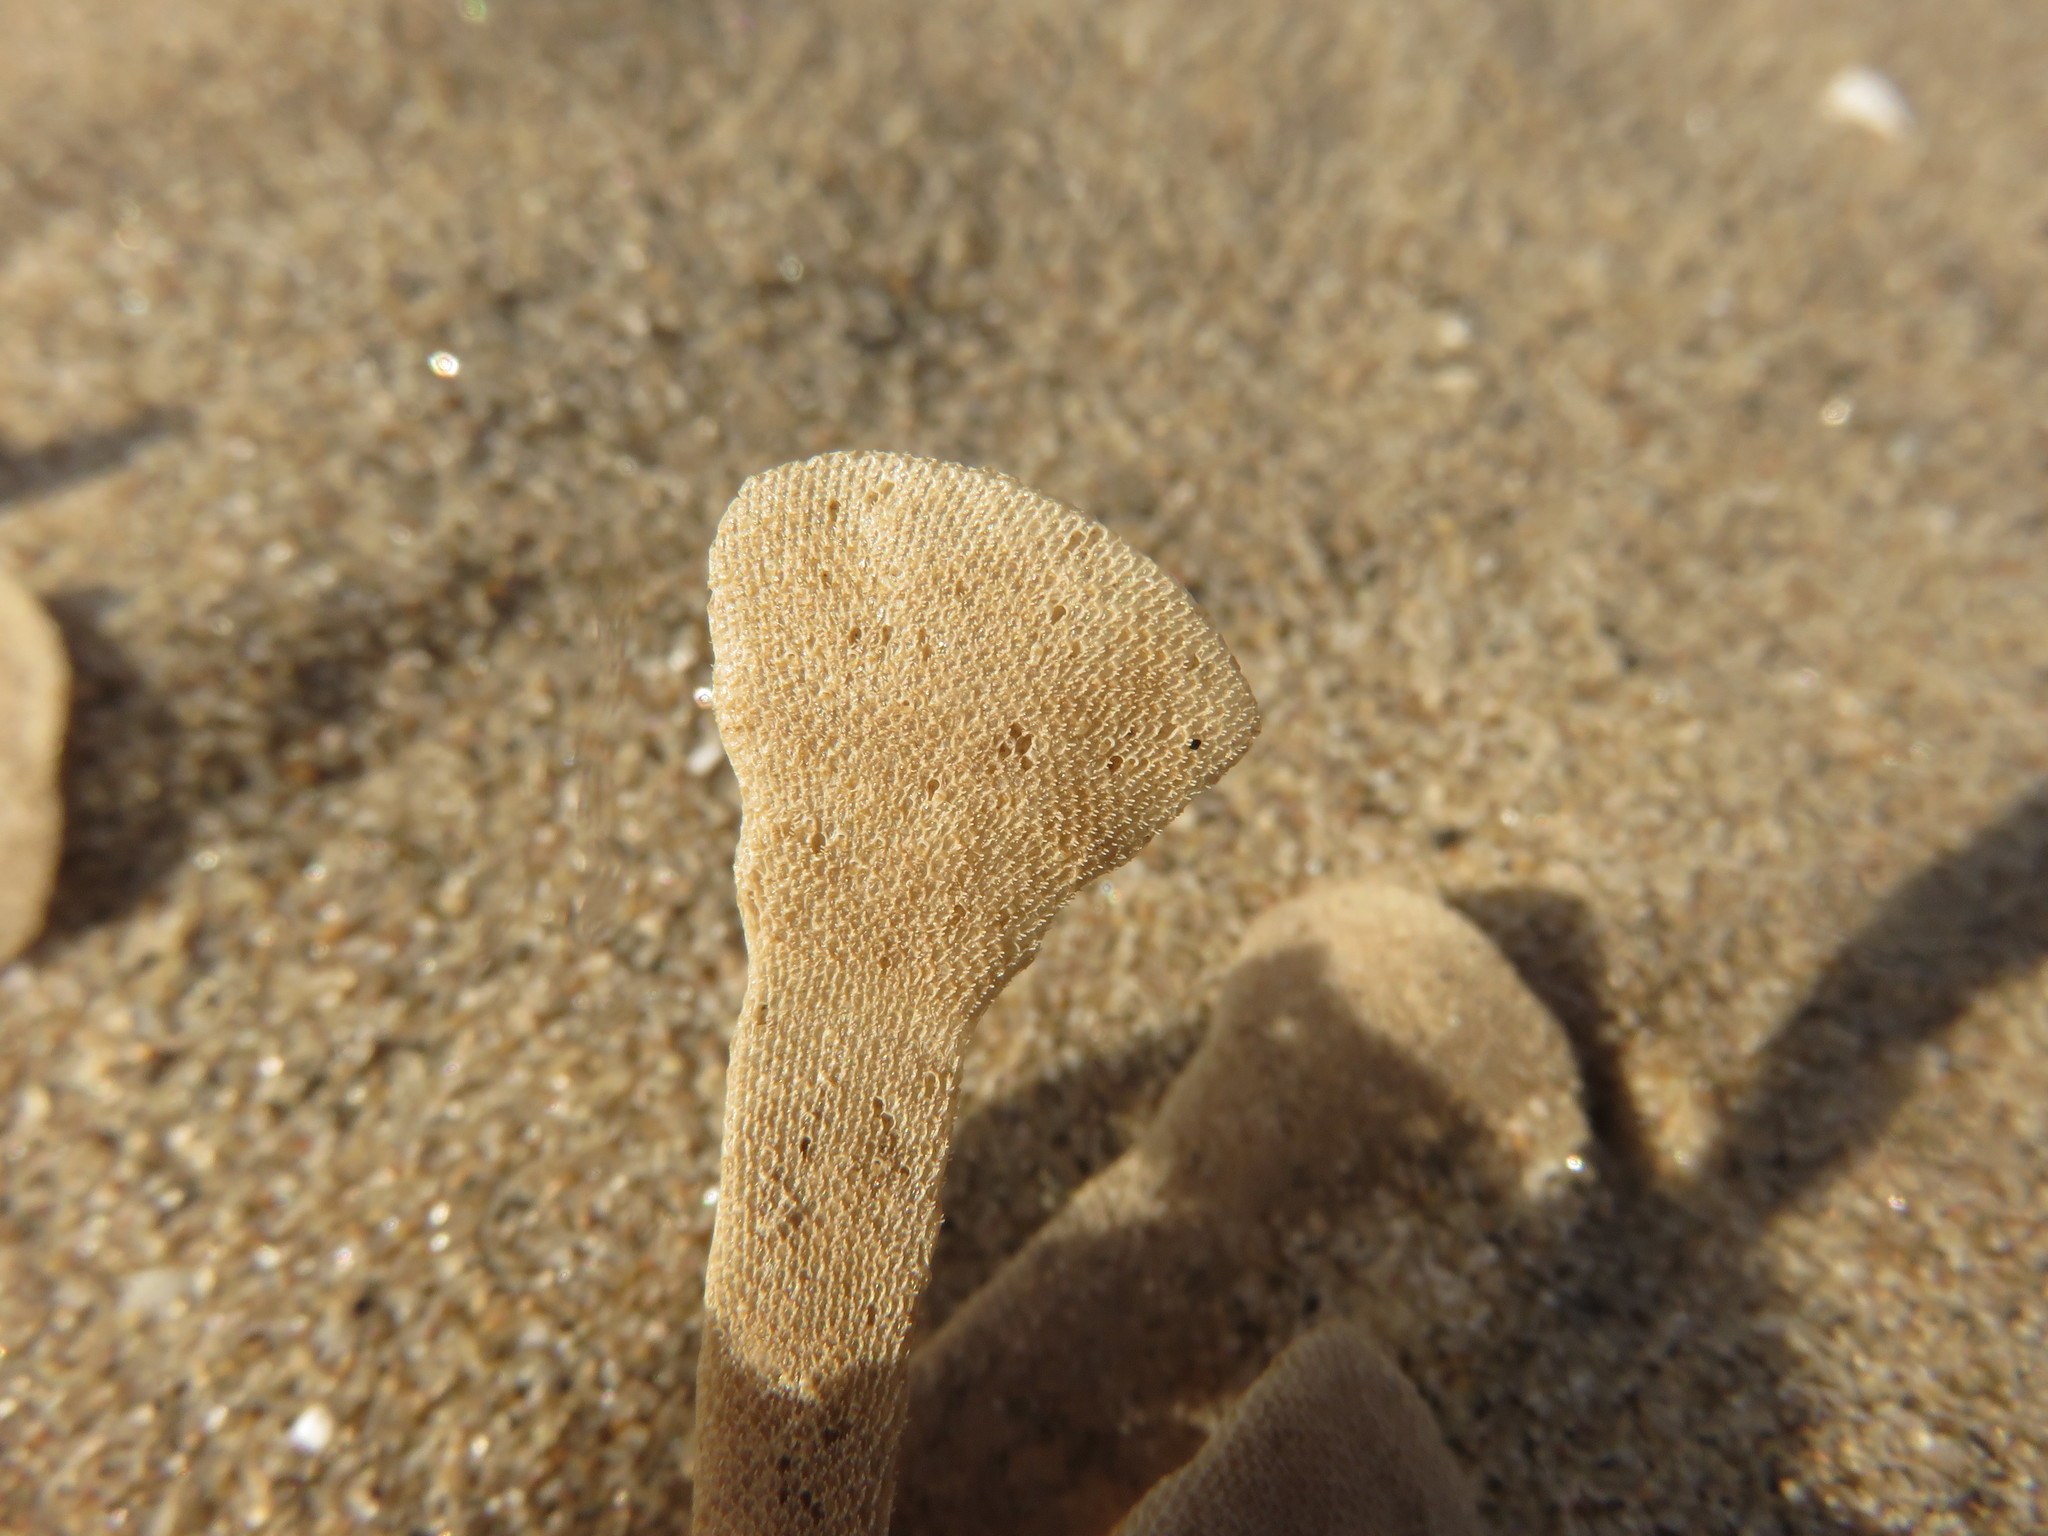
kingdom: Animalia
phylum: Bryozoa
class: Gymnolaemata
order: Cheilostomatida
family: Flustridae
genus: Flustra
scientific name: Flustra foliacea
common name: Hornwrack
